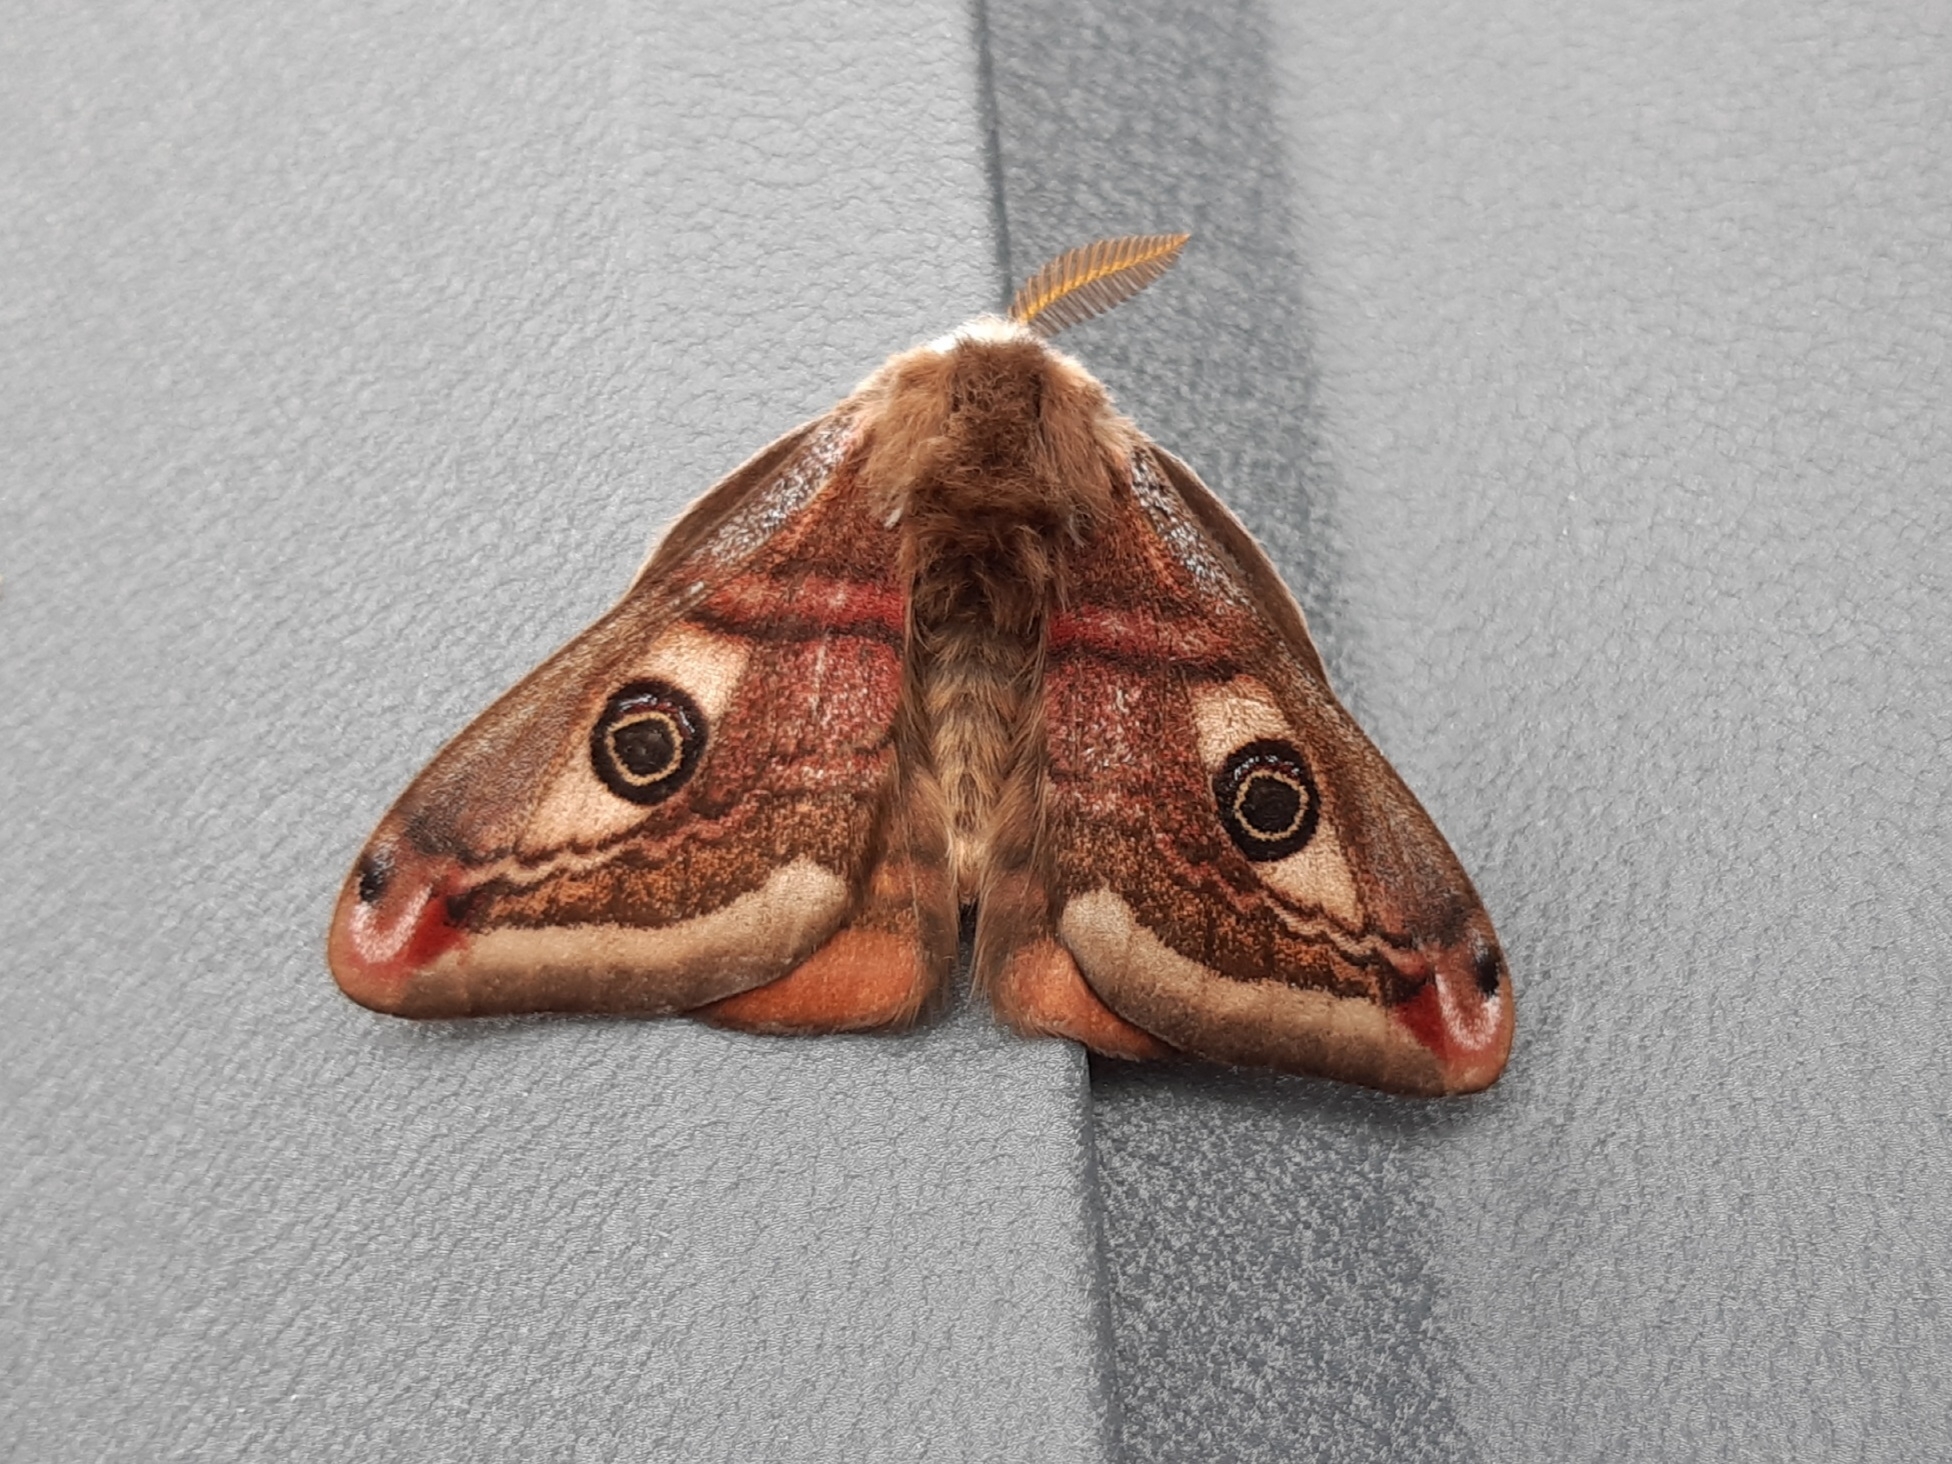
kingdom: Animalia
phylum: Arthropoda
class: Insecta
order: Lepidoptera
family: Saturniidae
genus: Saturnia
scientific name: Saturnia pavonia
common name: Emperor moth
